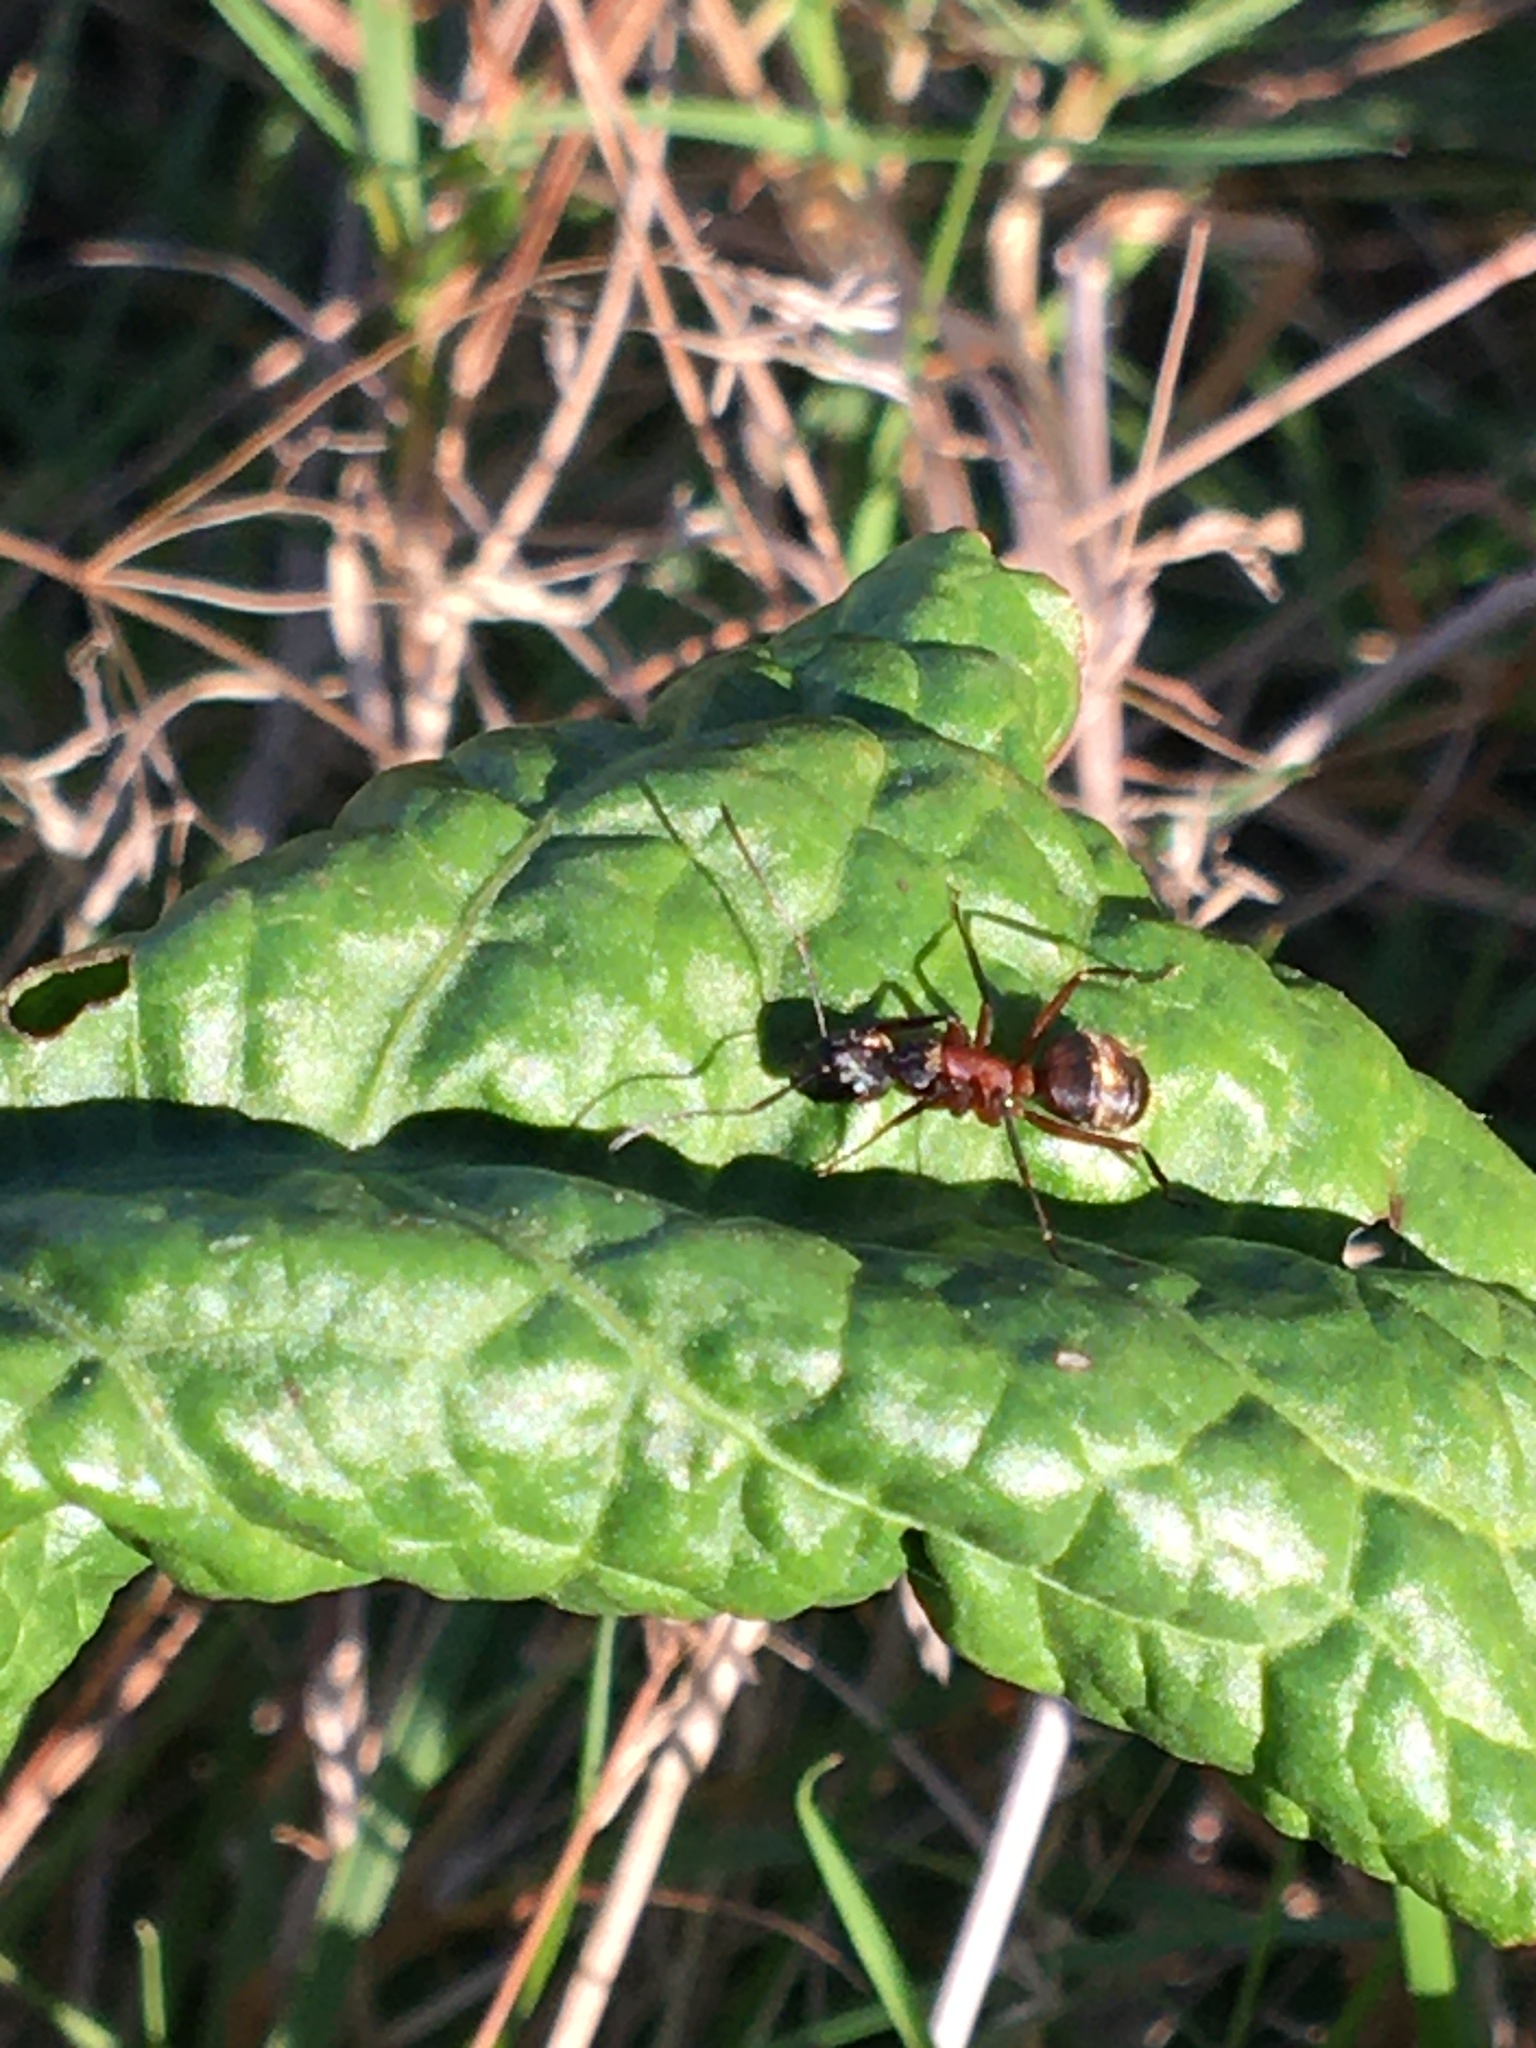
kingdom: Animalia
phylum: Arthropoda
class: Insecta
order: Hymenoptera
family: Formicidae
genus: Camponotus
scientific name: Camponotus chromaiodes
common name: Red carpenter ant
